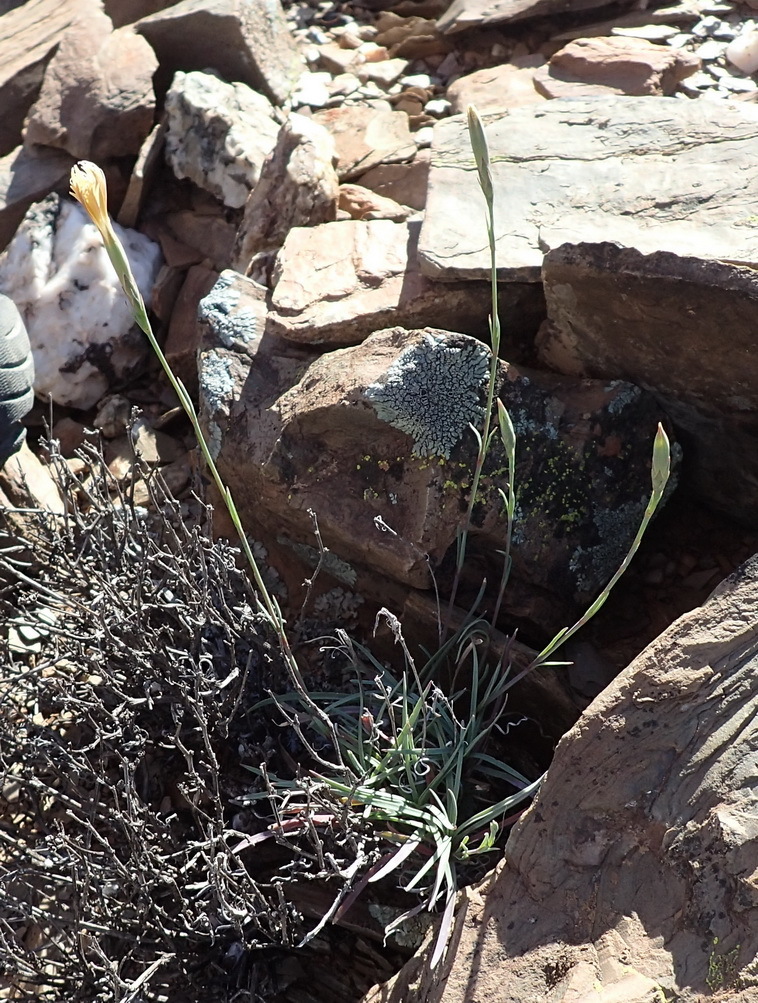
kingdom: Plantae
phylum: Tracheophyta
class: Magnoliopsida
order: Caryophyllales
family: Caryophyllaceae
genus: Dianthus
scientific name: Dianthus namaensis
